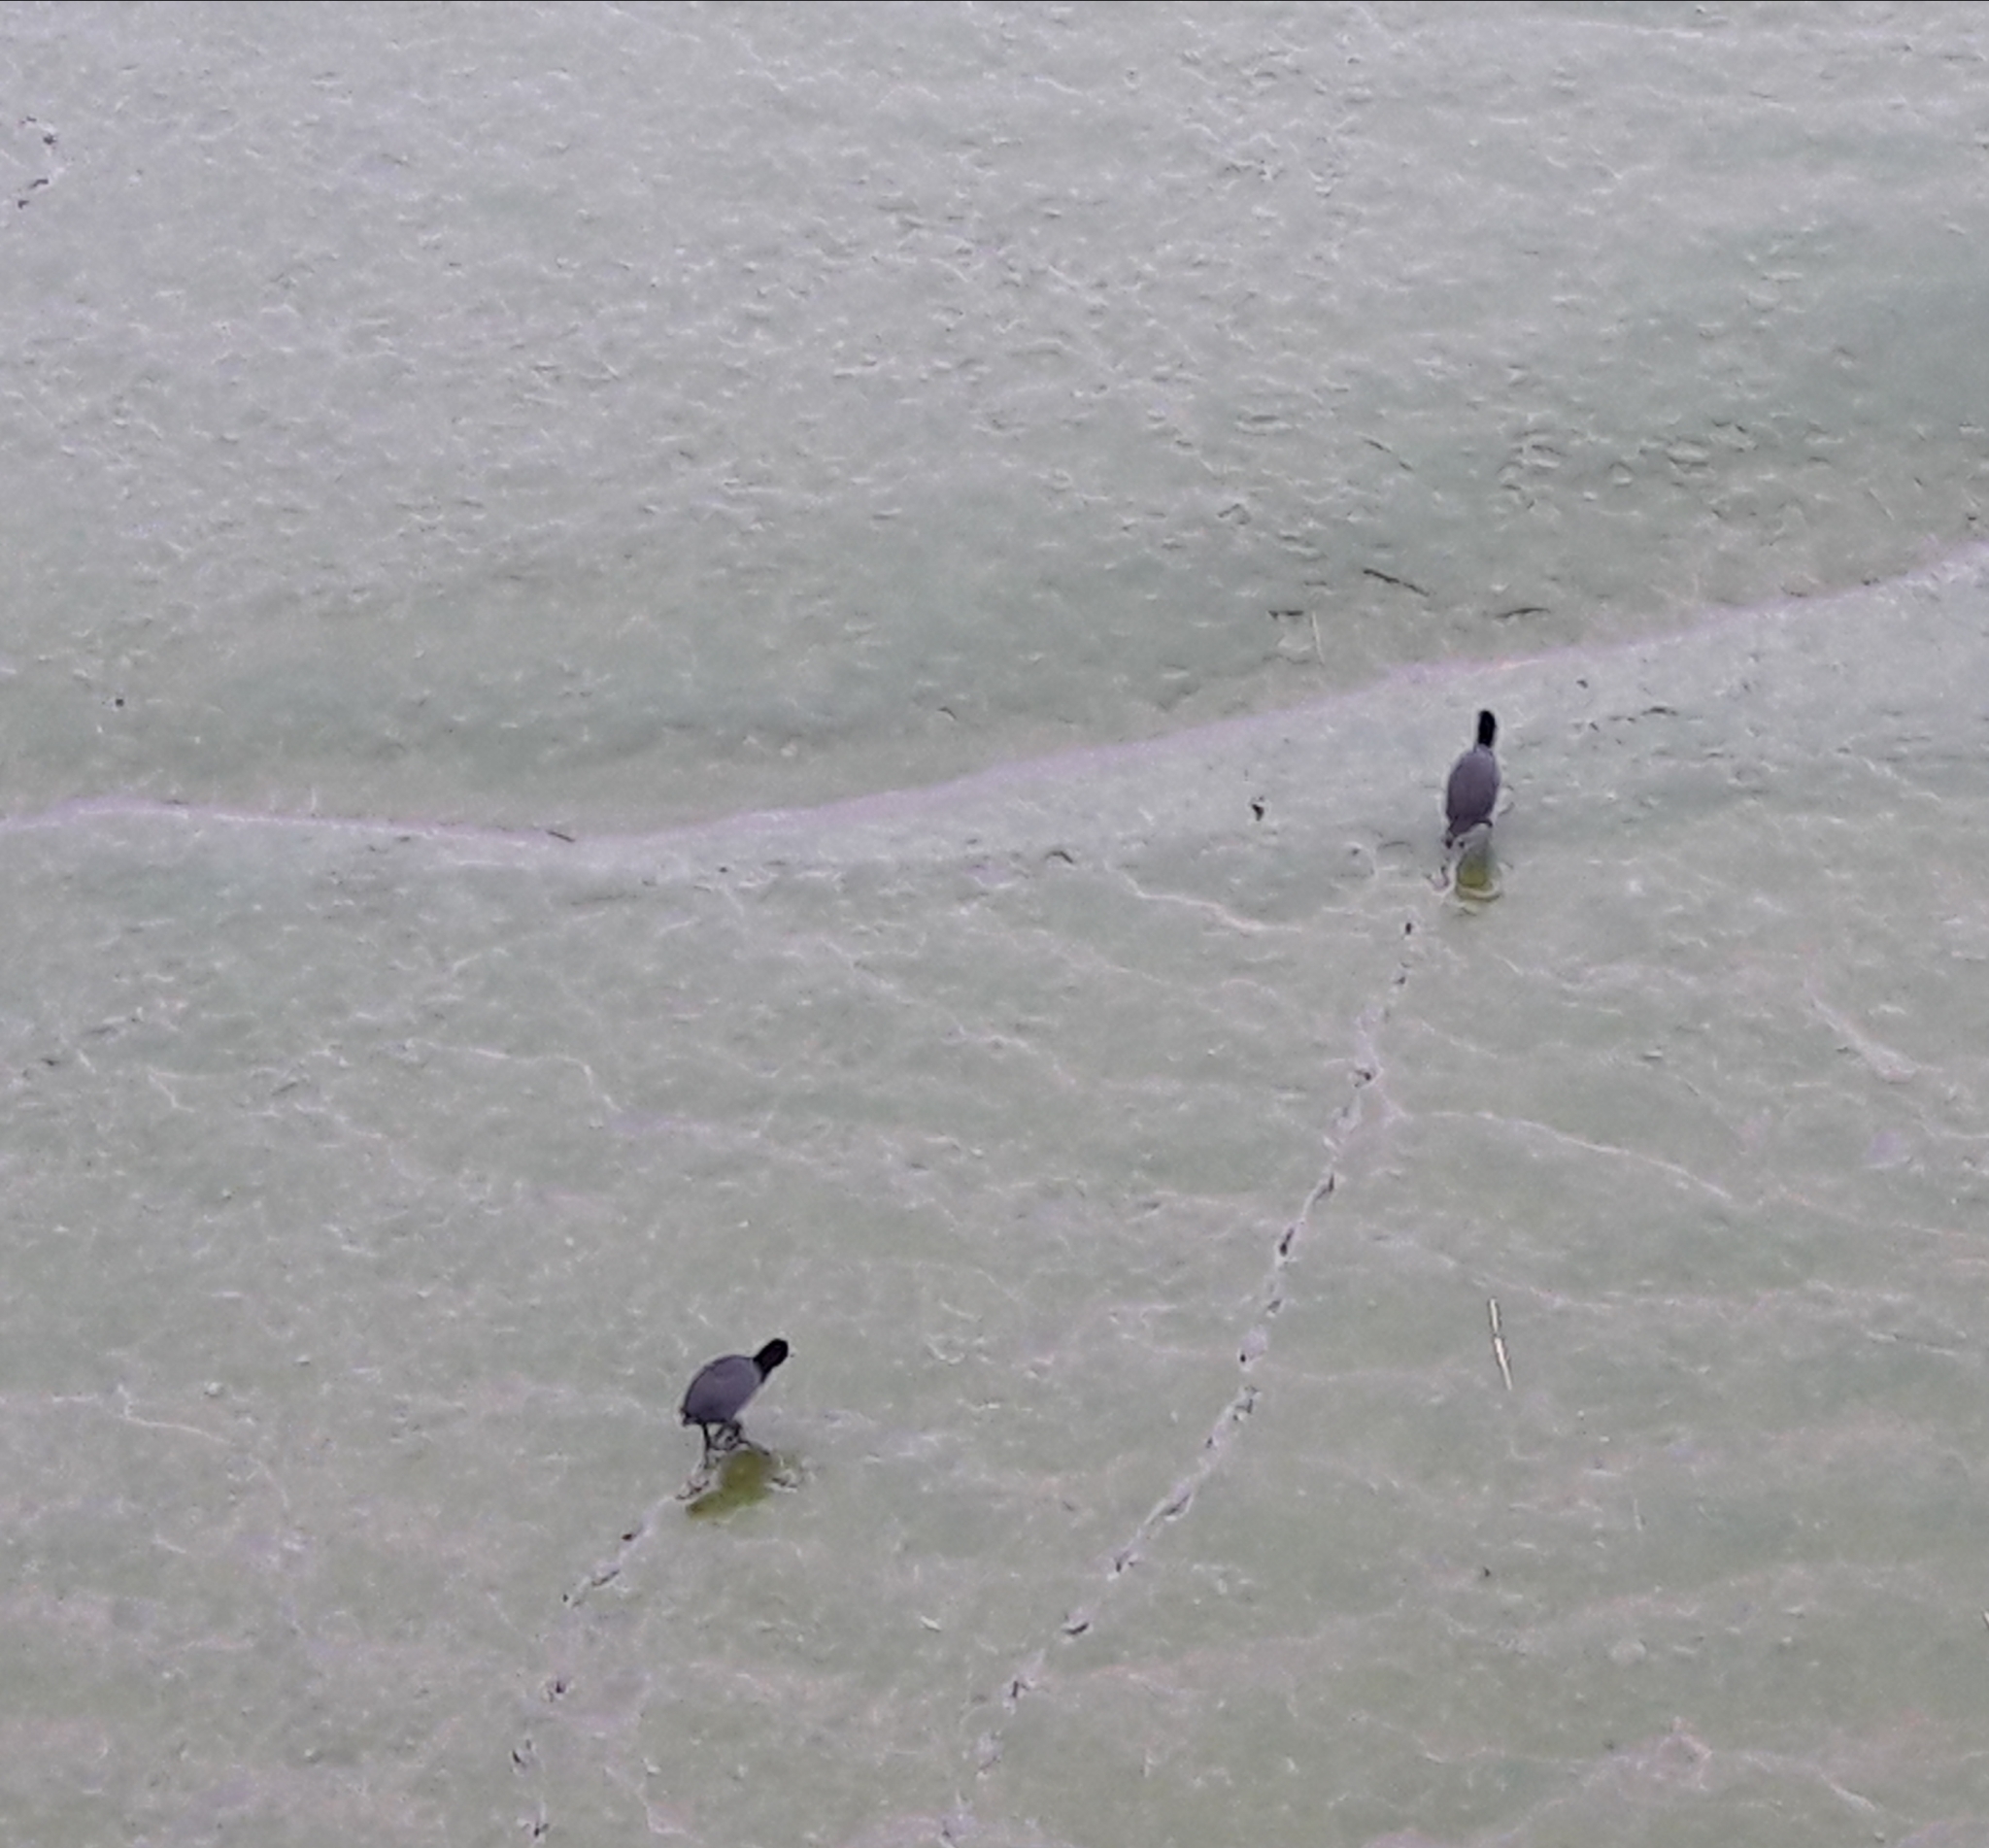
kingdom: Animalia
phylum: Chordata
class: Aves
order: Gruiformes
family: Rallidae
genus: Fulica
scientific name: Fulica atra
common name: Eurasian coot
